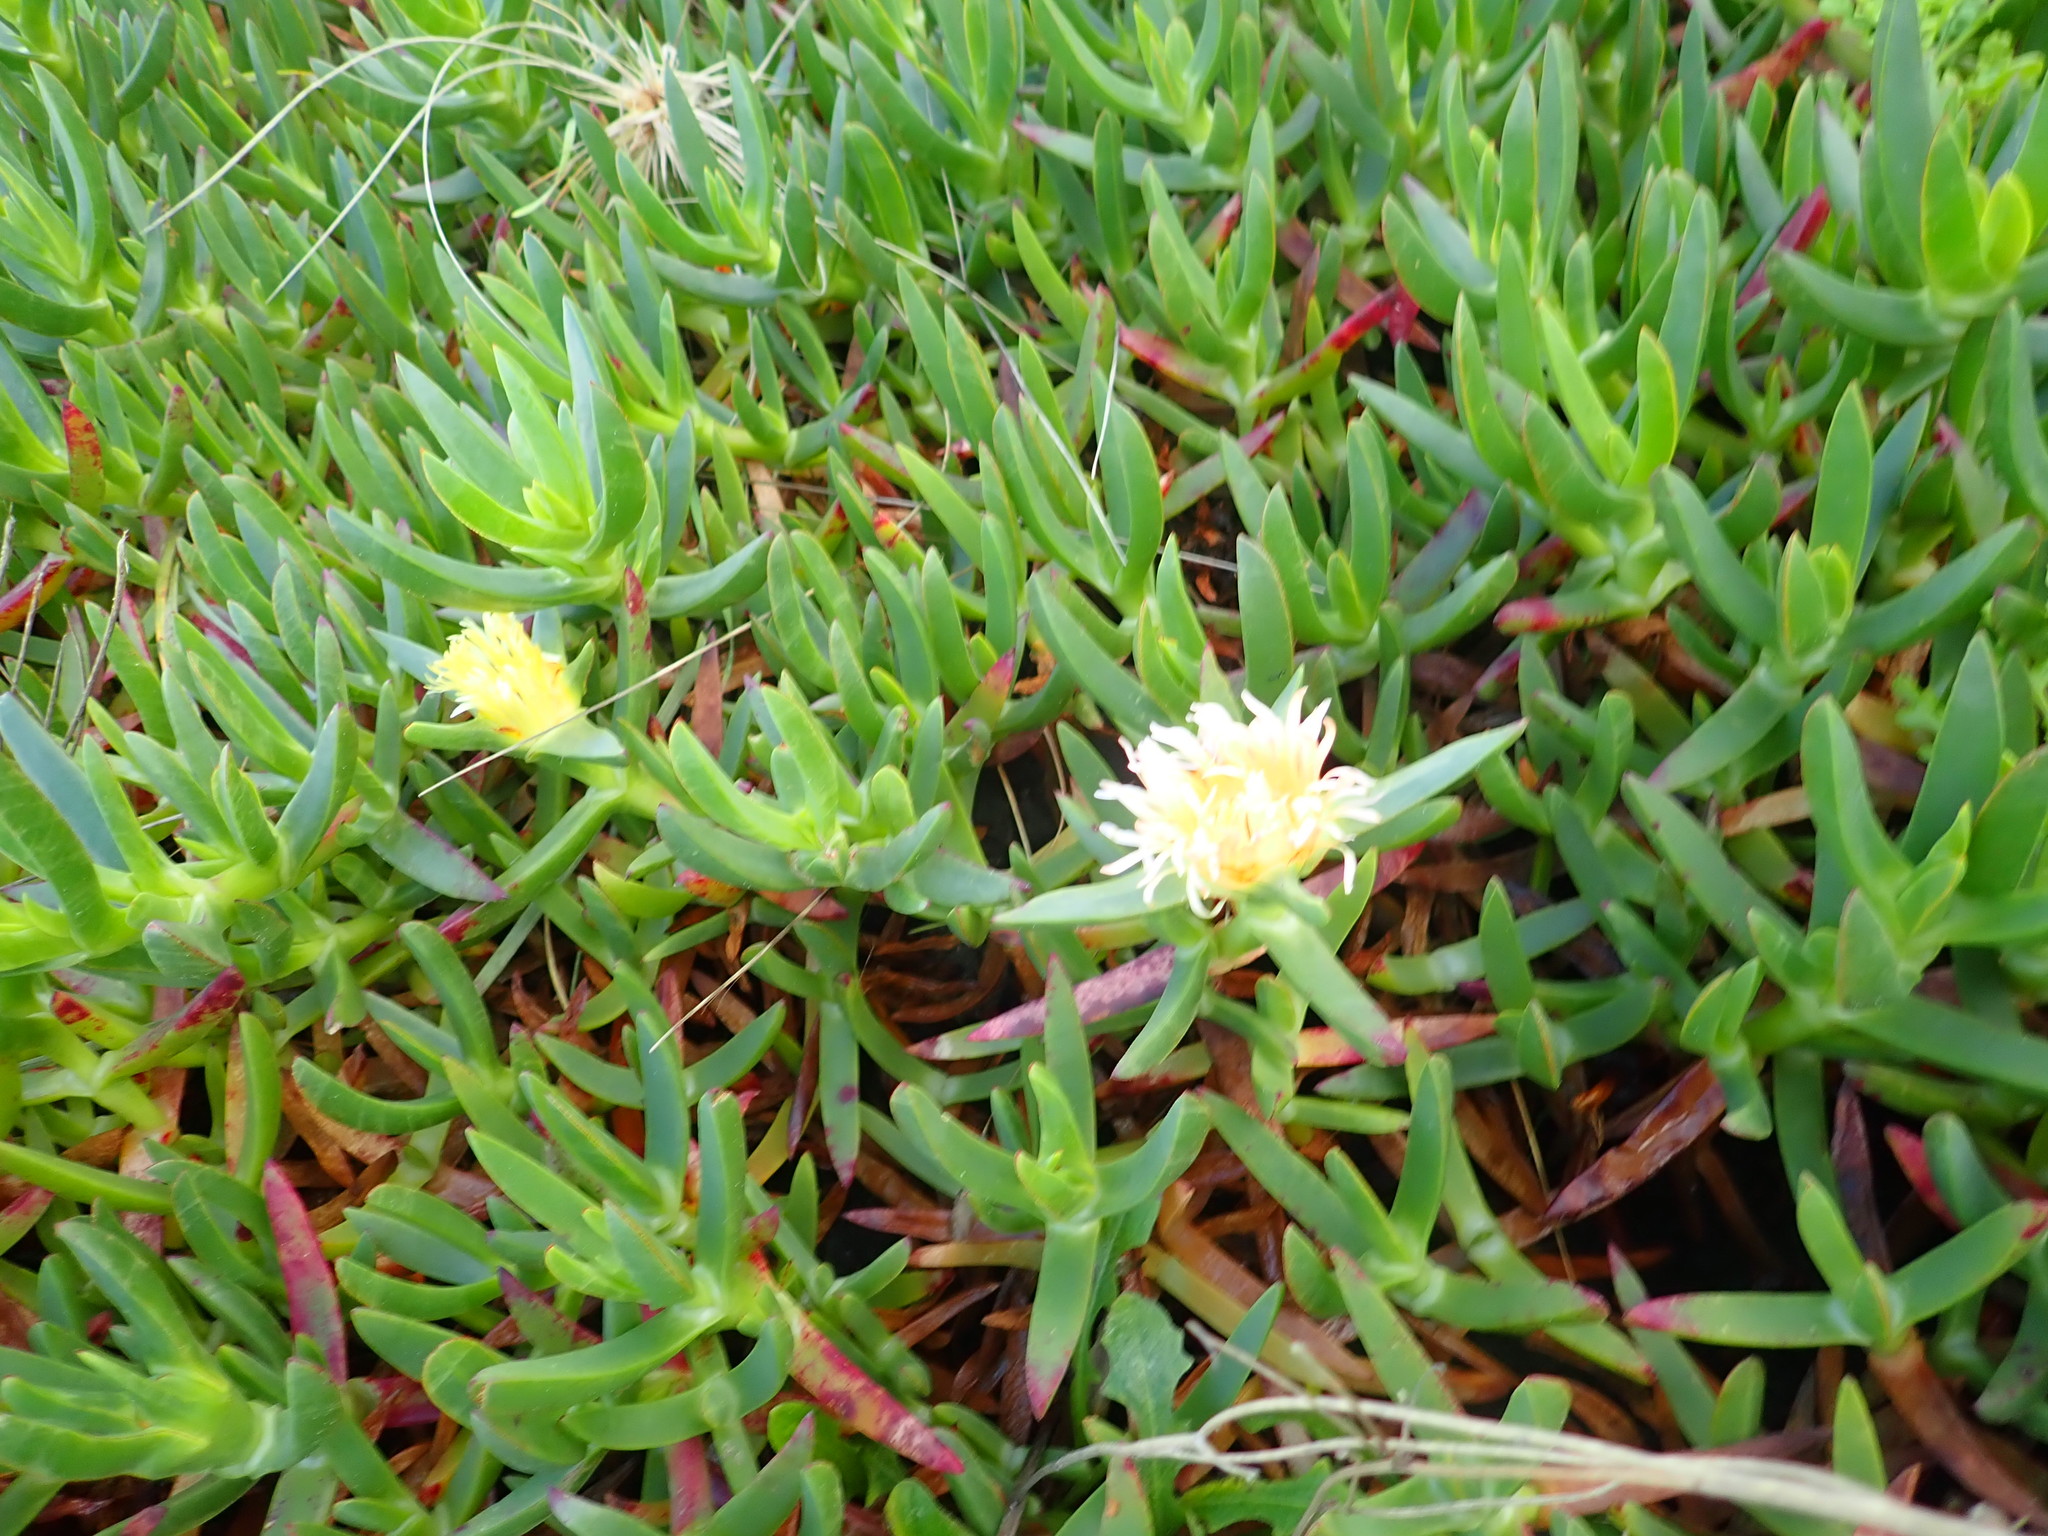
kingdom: Plantae
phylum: Tracheophyta
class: Magnoliopsida
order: Caryophyllales
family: Aizoaceae
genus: Carpobrotus
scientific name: Carpobrotus edulis
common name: Hottentot-fig
